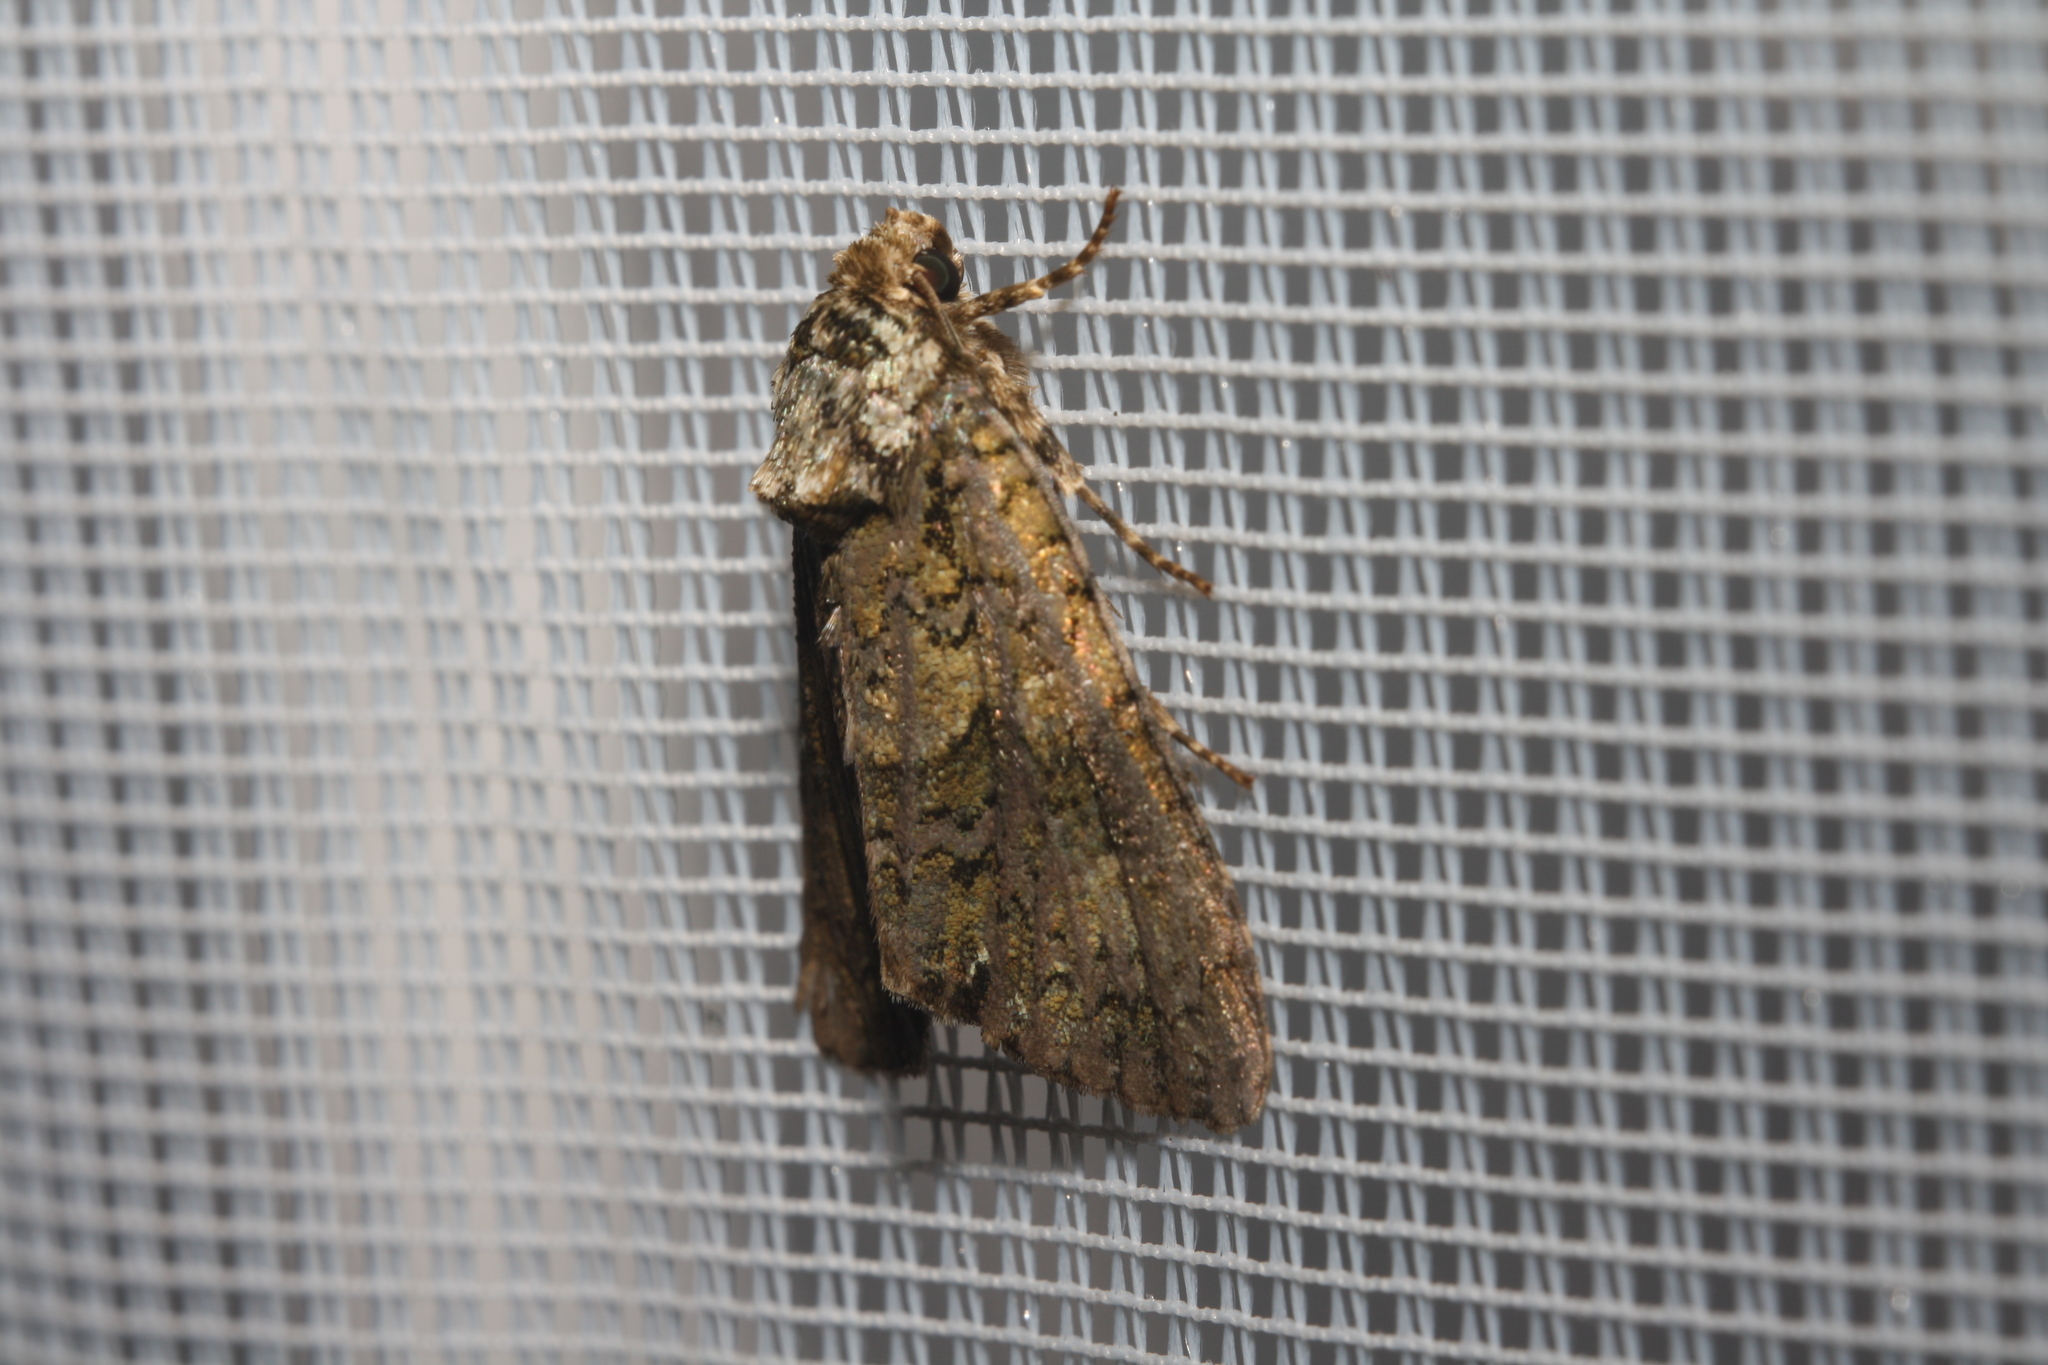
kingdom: Animalia
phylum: Arthropoda
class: Insecta
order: Lepidoptera
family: Noctuidae
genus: Craniophora
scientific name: Craniophora ligustri
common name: Coronet
